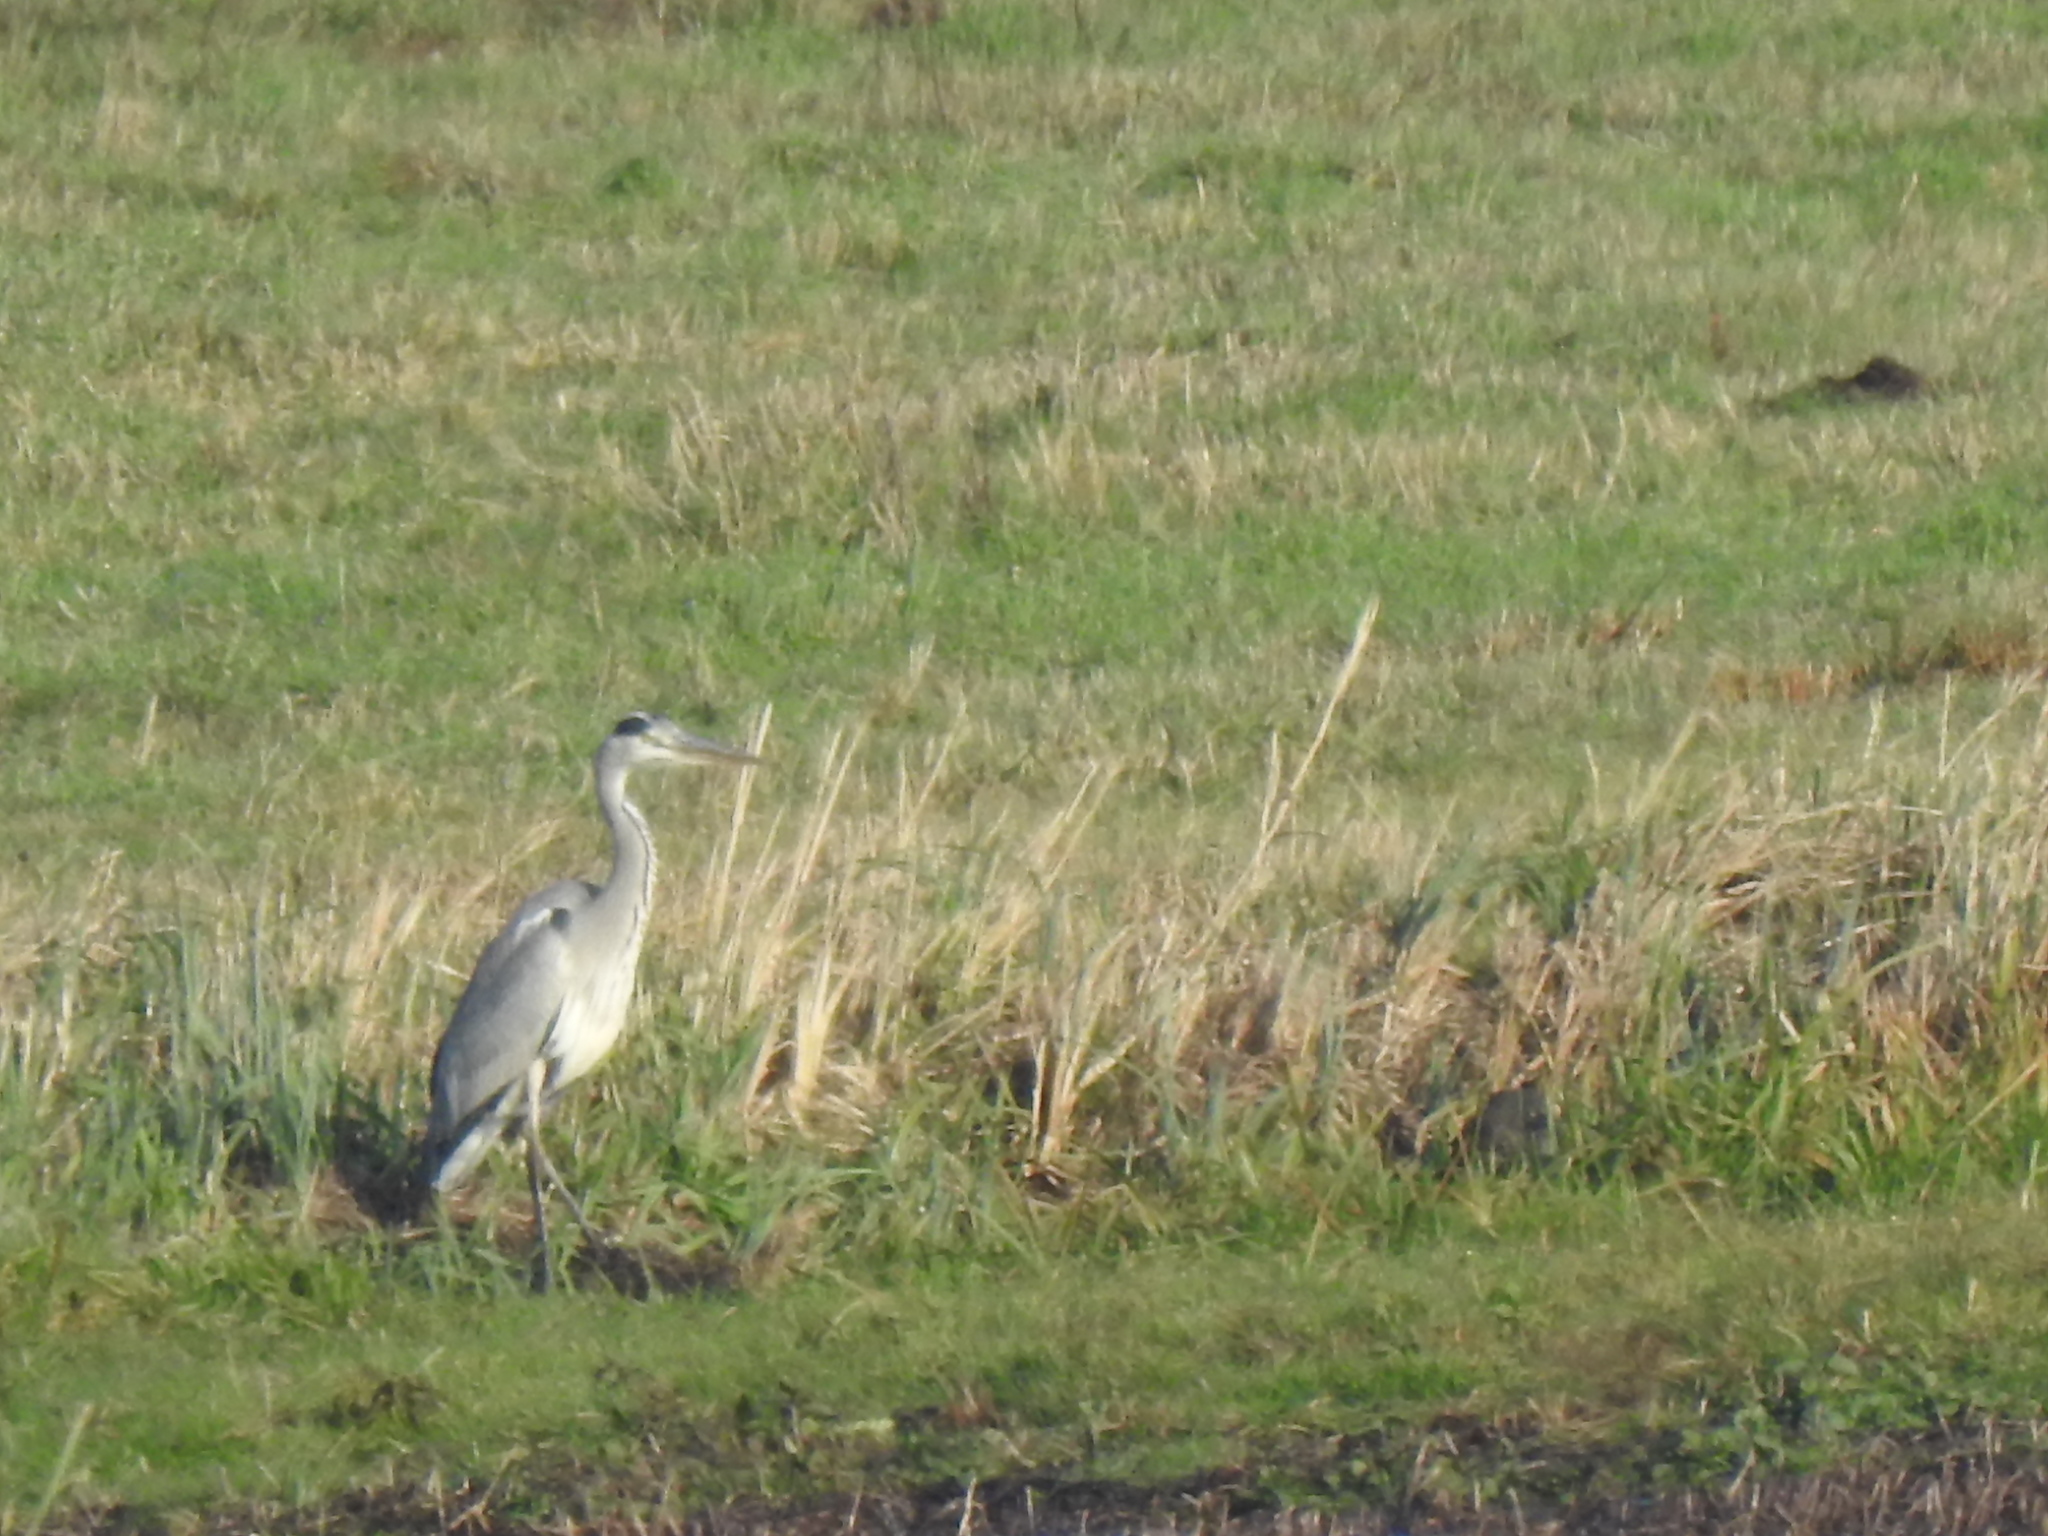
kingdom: Animalia
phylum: Chordata
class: Aves
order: Pelecaniformes
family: Ardeidae
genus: Ardea
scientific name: Ardea cinerea
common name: Grey heron
